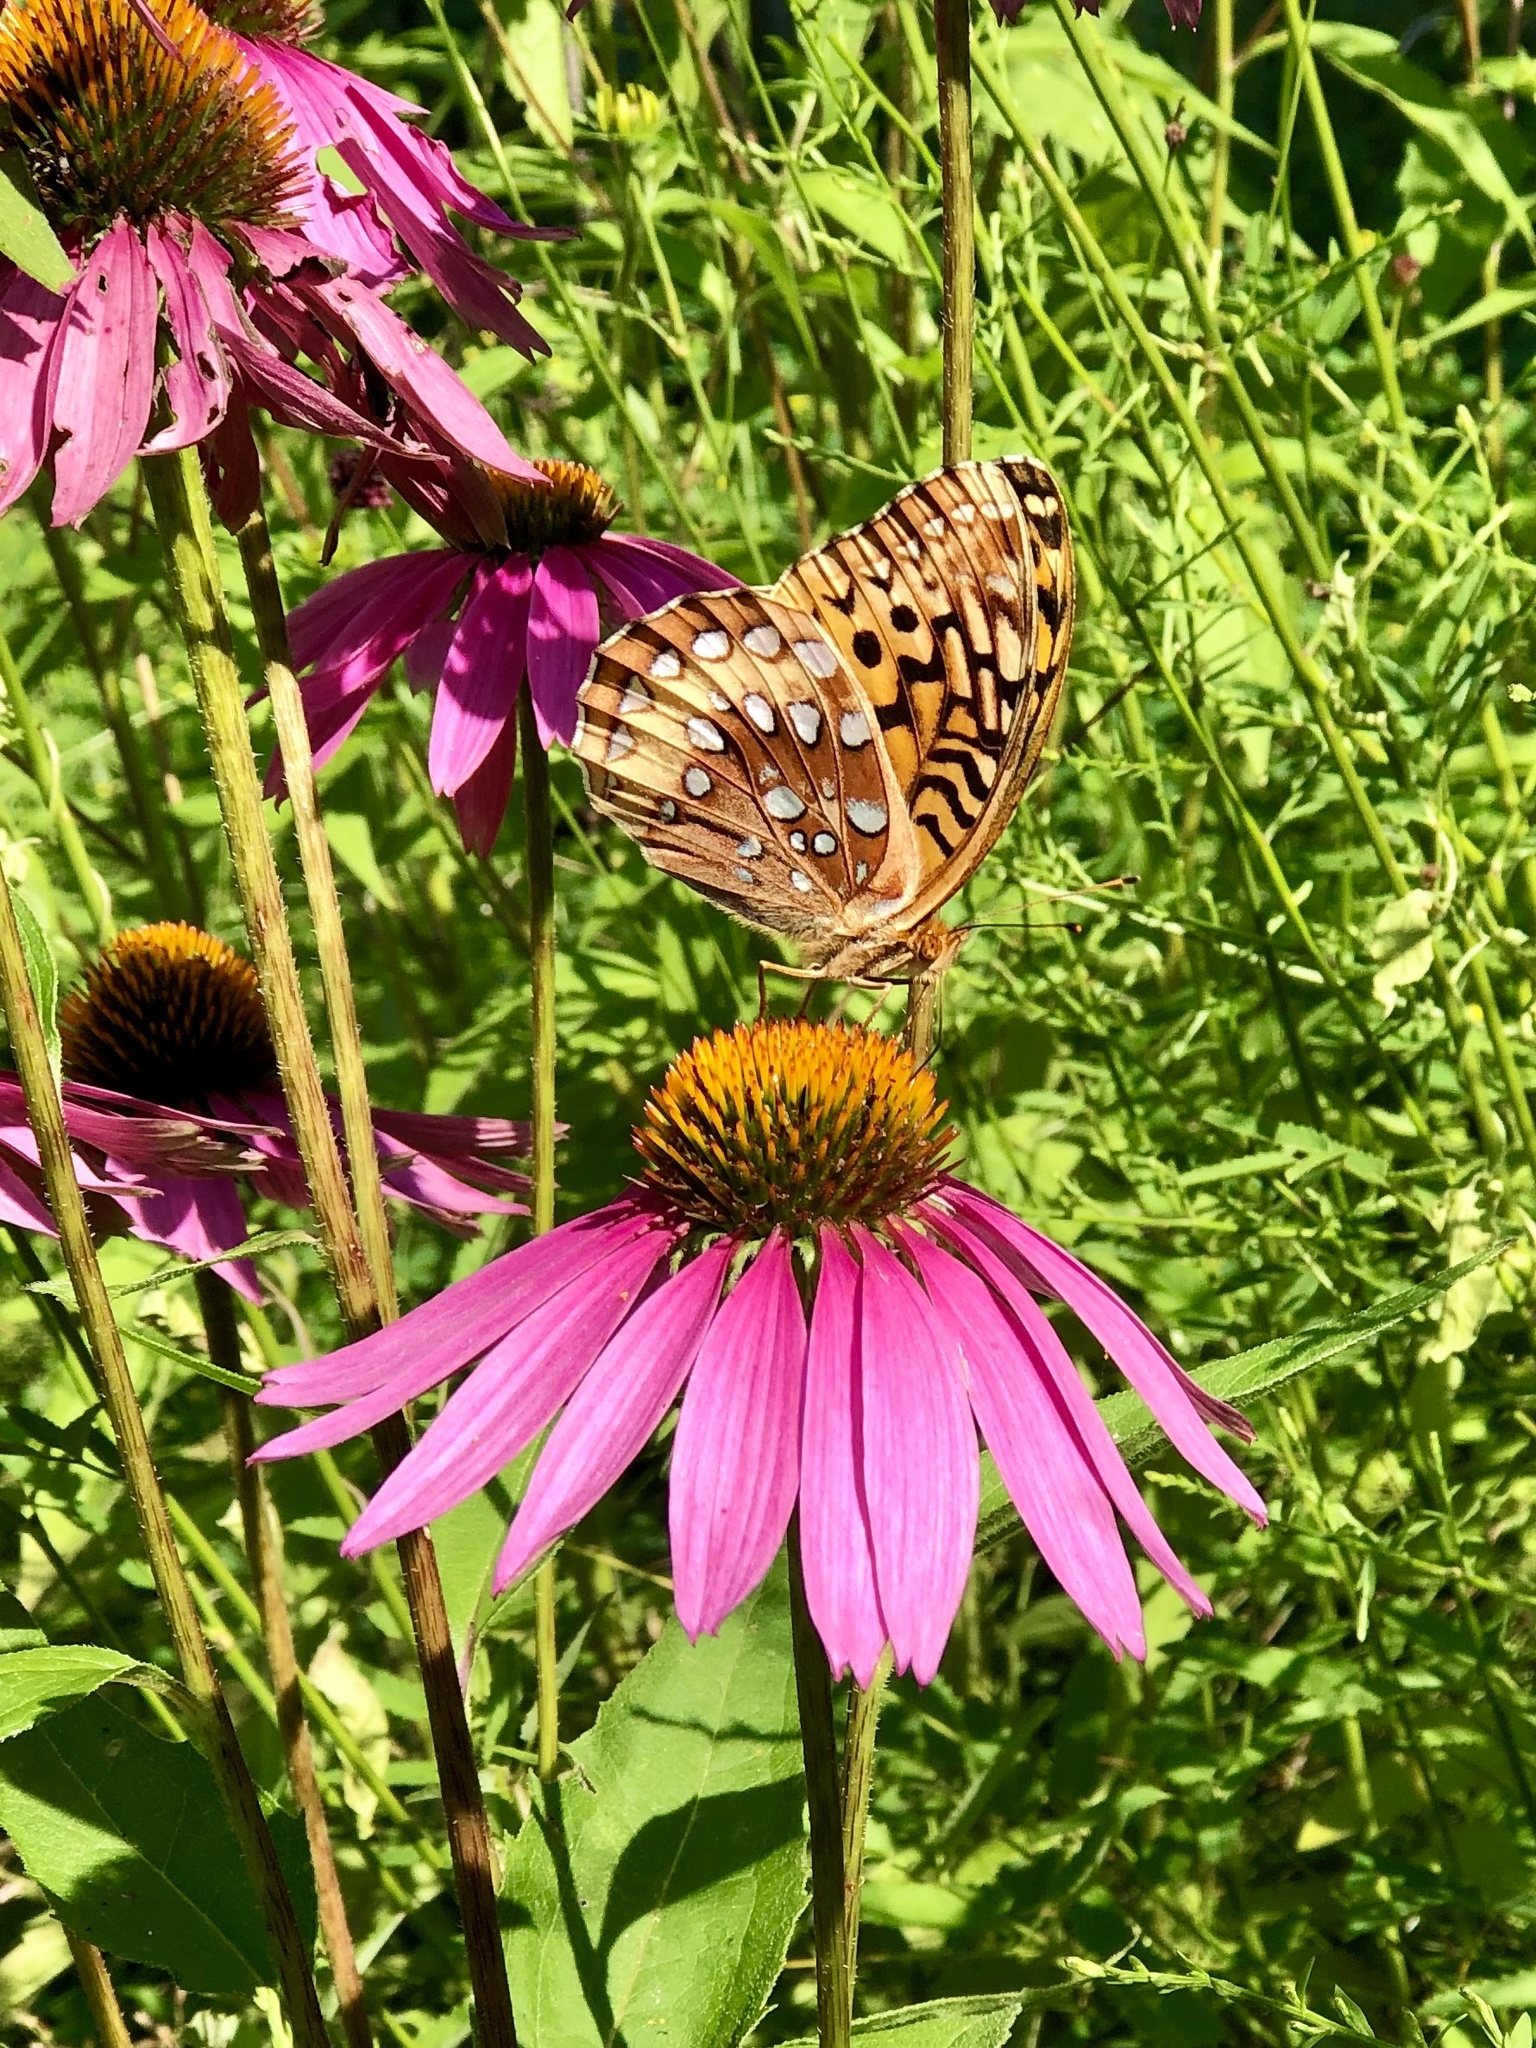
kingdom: Animalia
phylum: Arthropoda
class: Insecta
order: Lepidoptera
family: Nymphalidae
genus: Speyeria
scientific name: Speyeria cybele
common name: Great spangled fritillary
